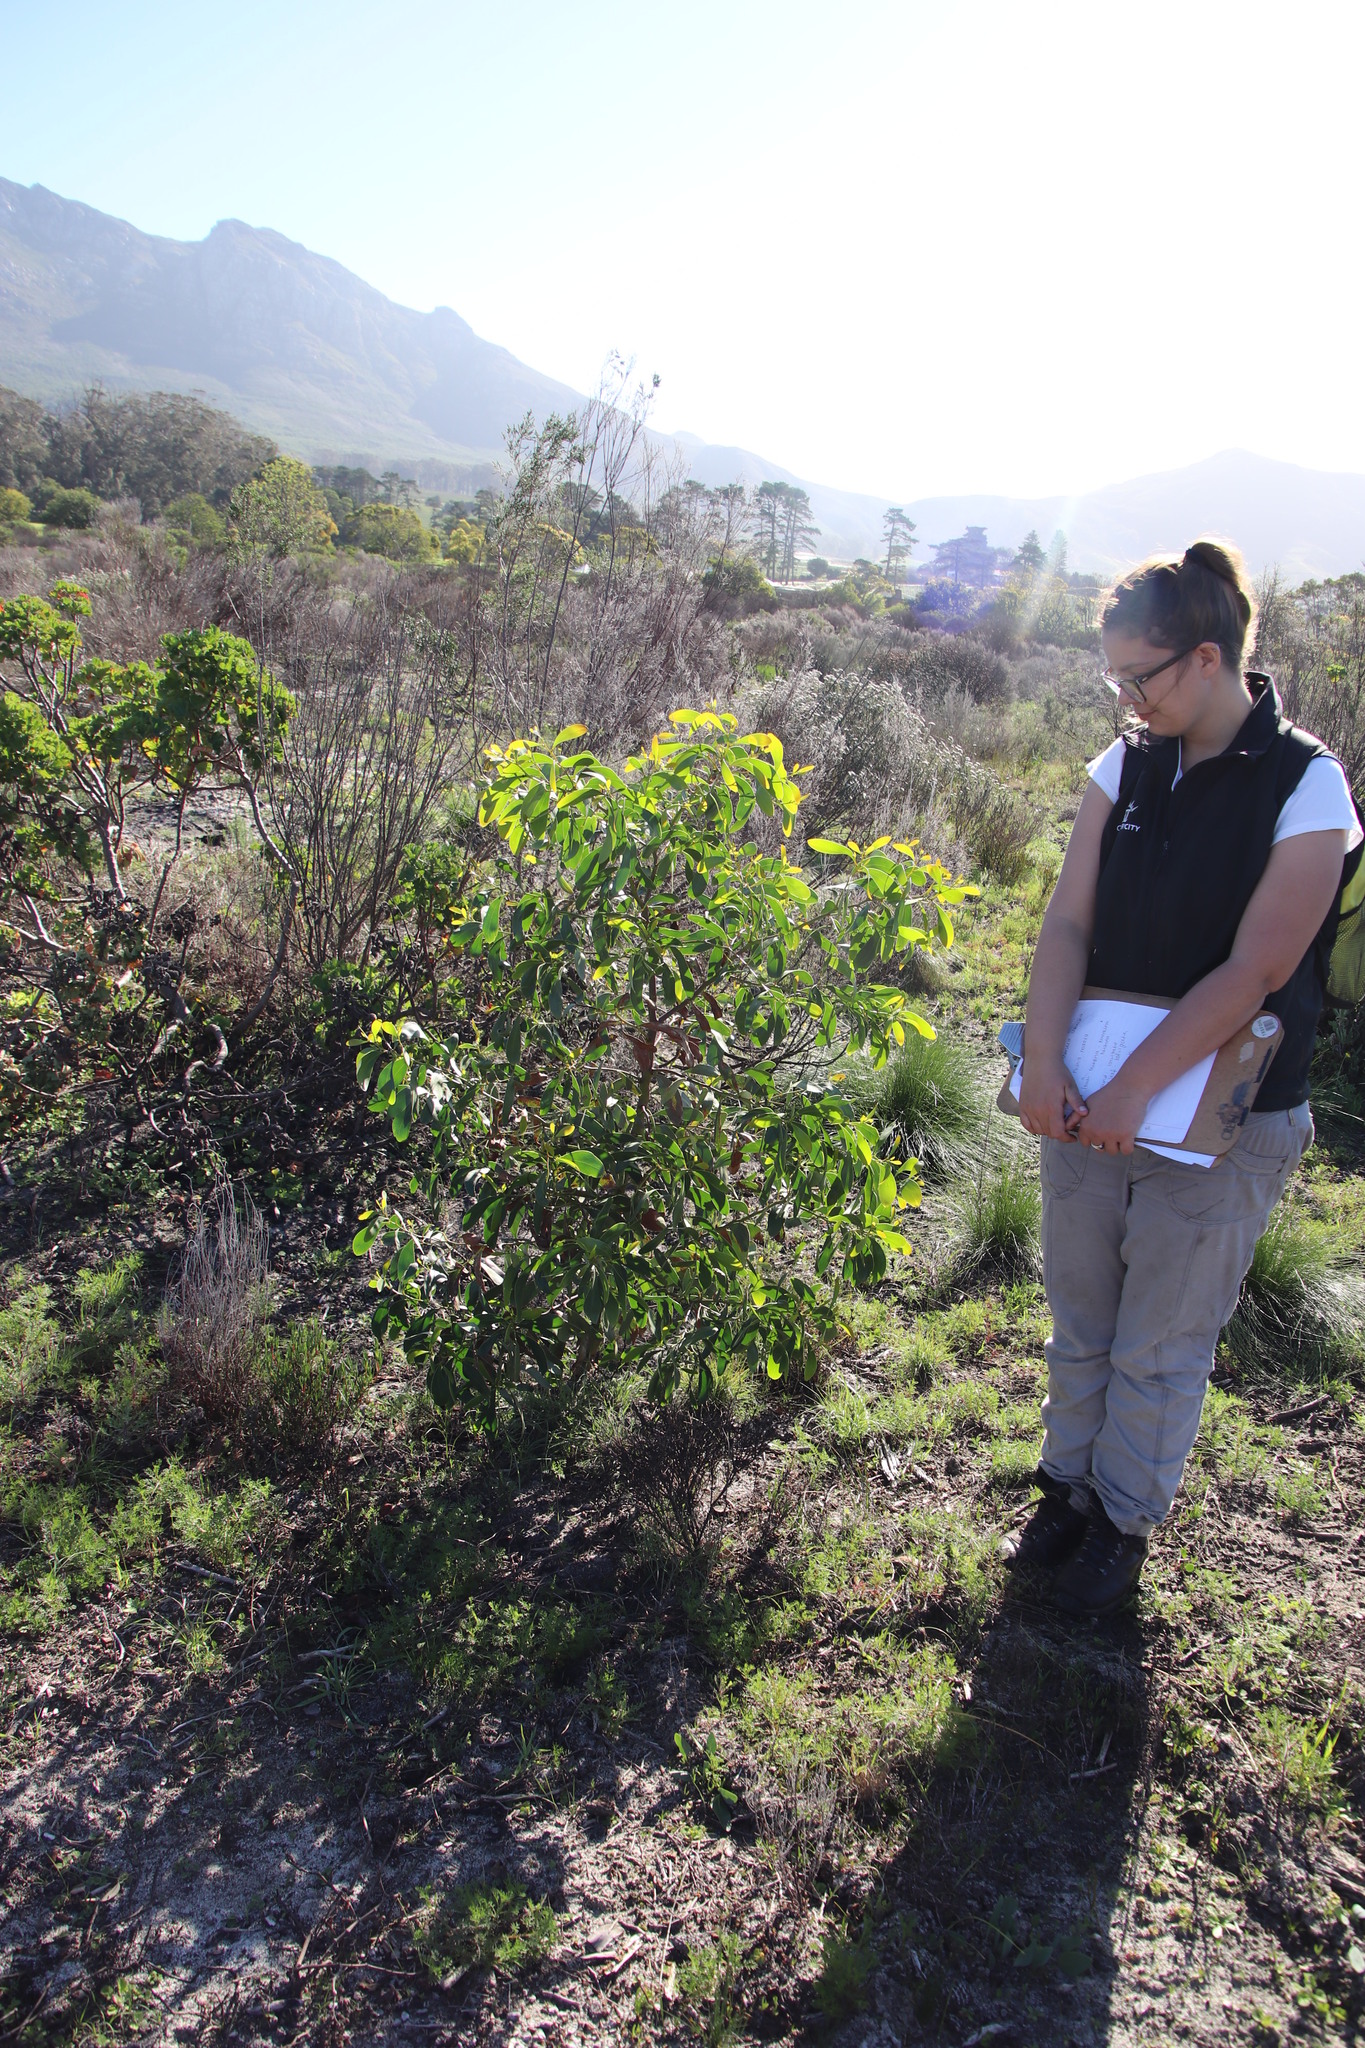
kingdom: Plantae
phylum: Tracheophyta
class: Magnoliopsida
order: Fabales
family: Fabaceae
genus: Acacia
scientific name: Acacia pycnantha
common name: Golden wattle
